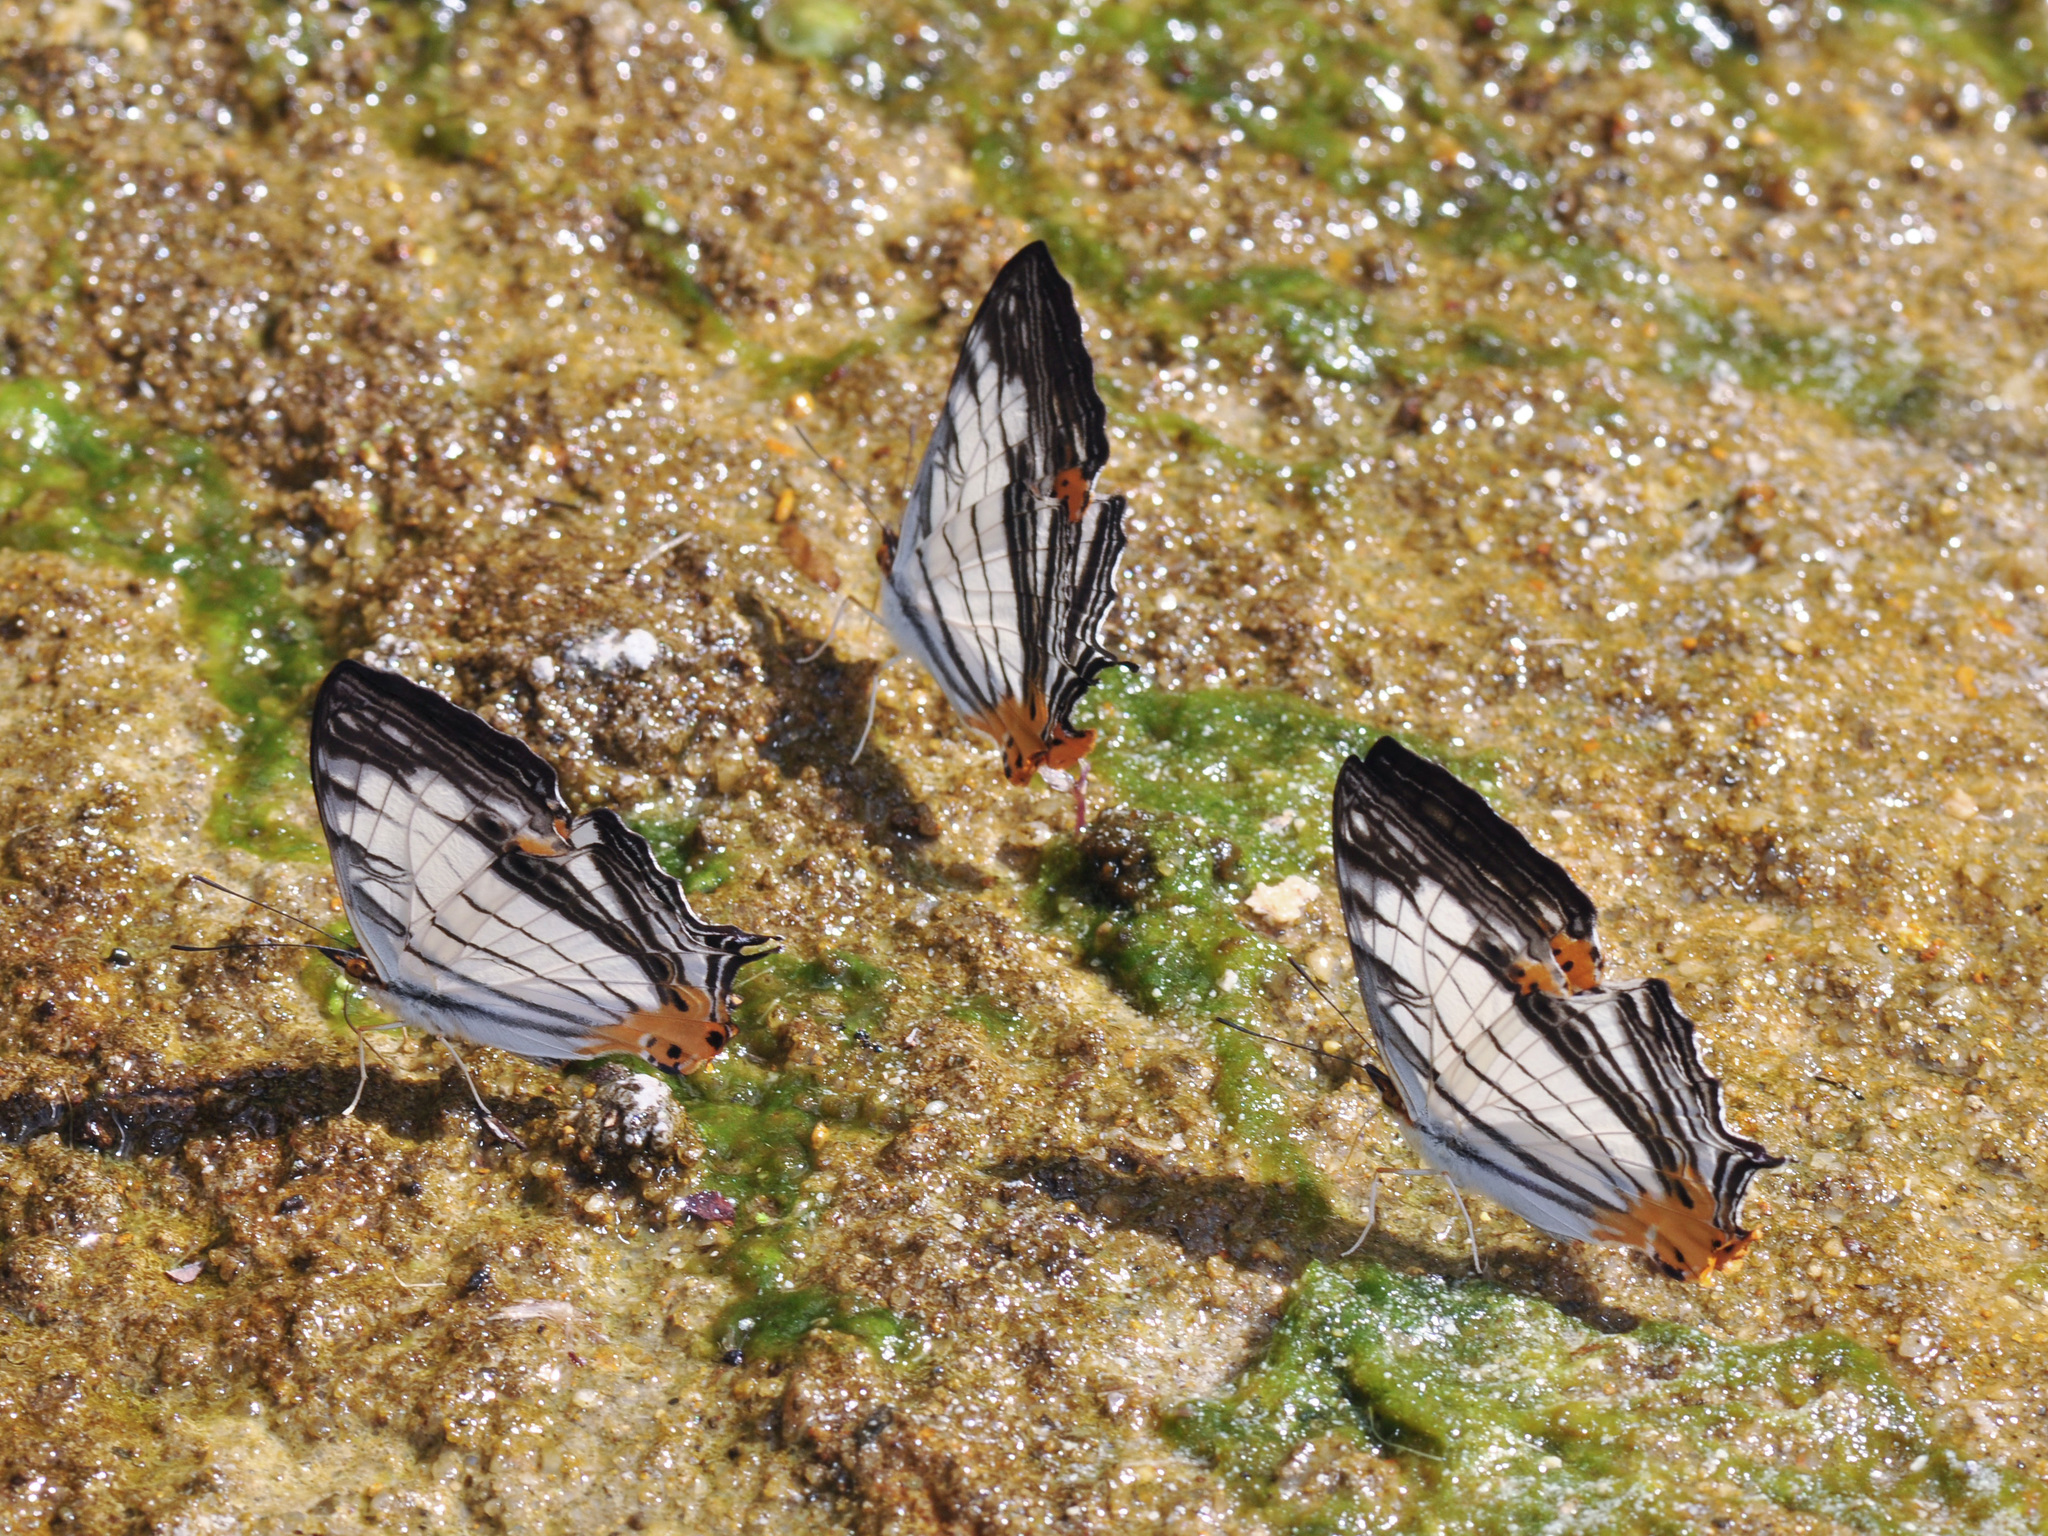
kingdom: Animalia
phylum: Arthropoda
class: Insecta
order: Lepidoptera
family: Nymphalidae
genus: Cyrestis
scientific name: Cyrestis maenalis
